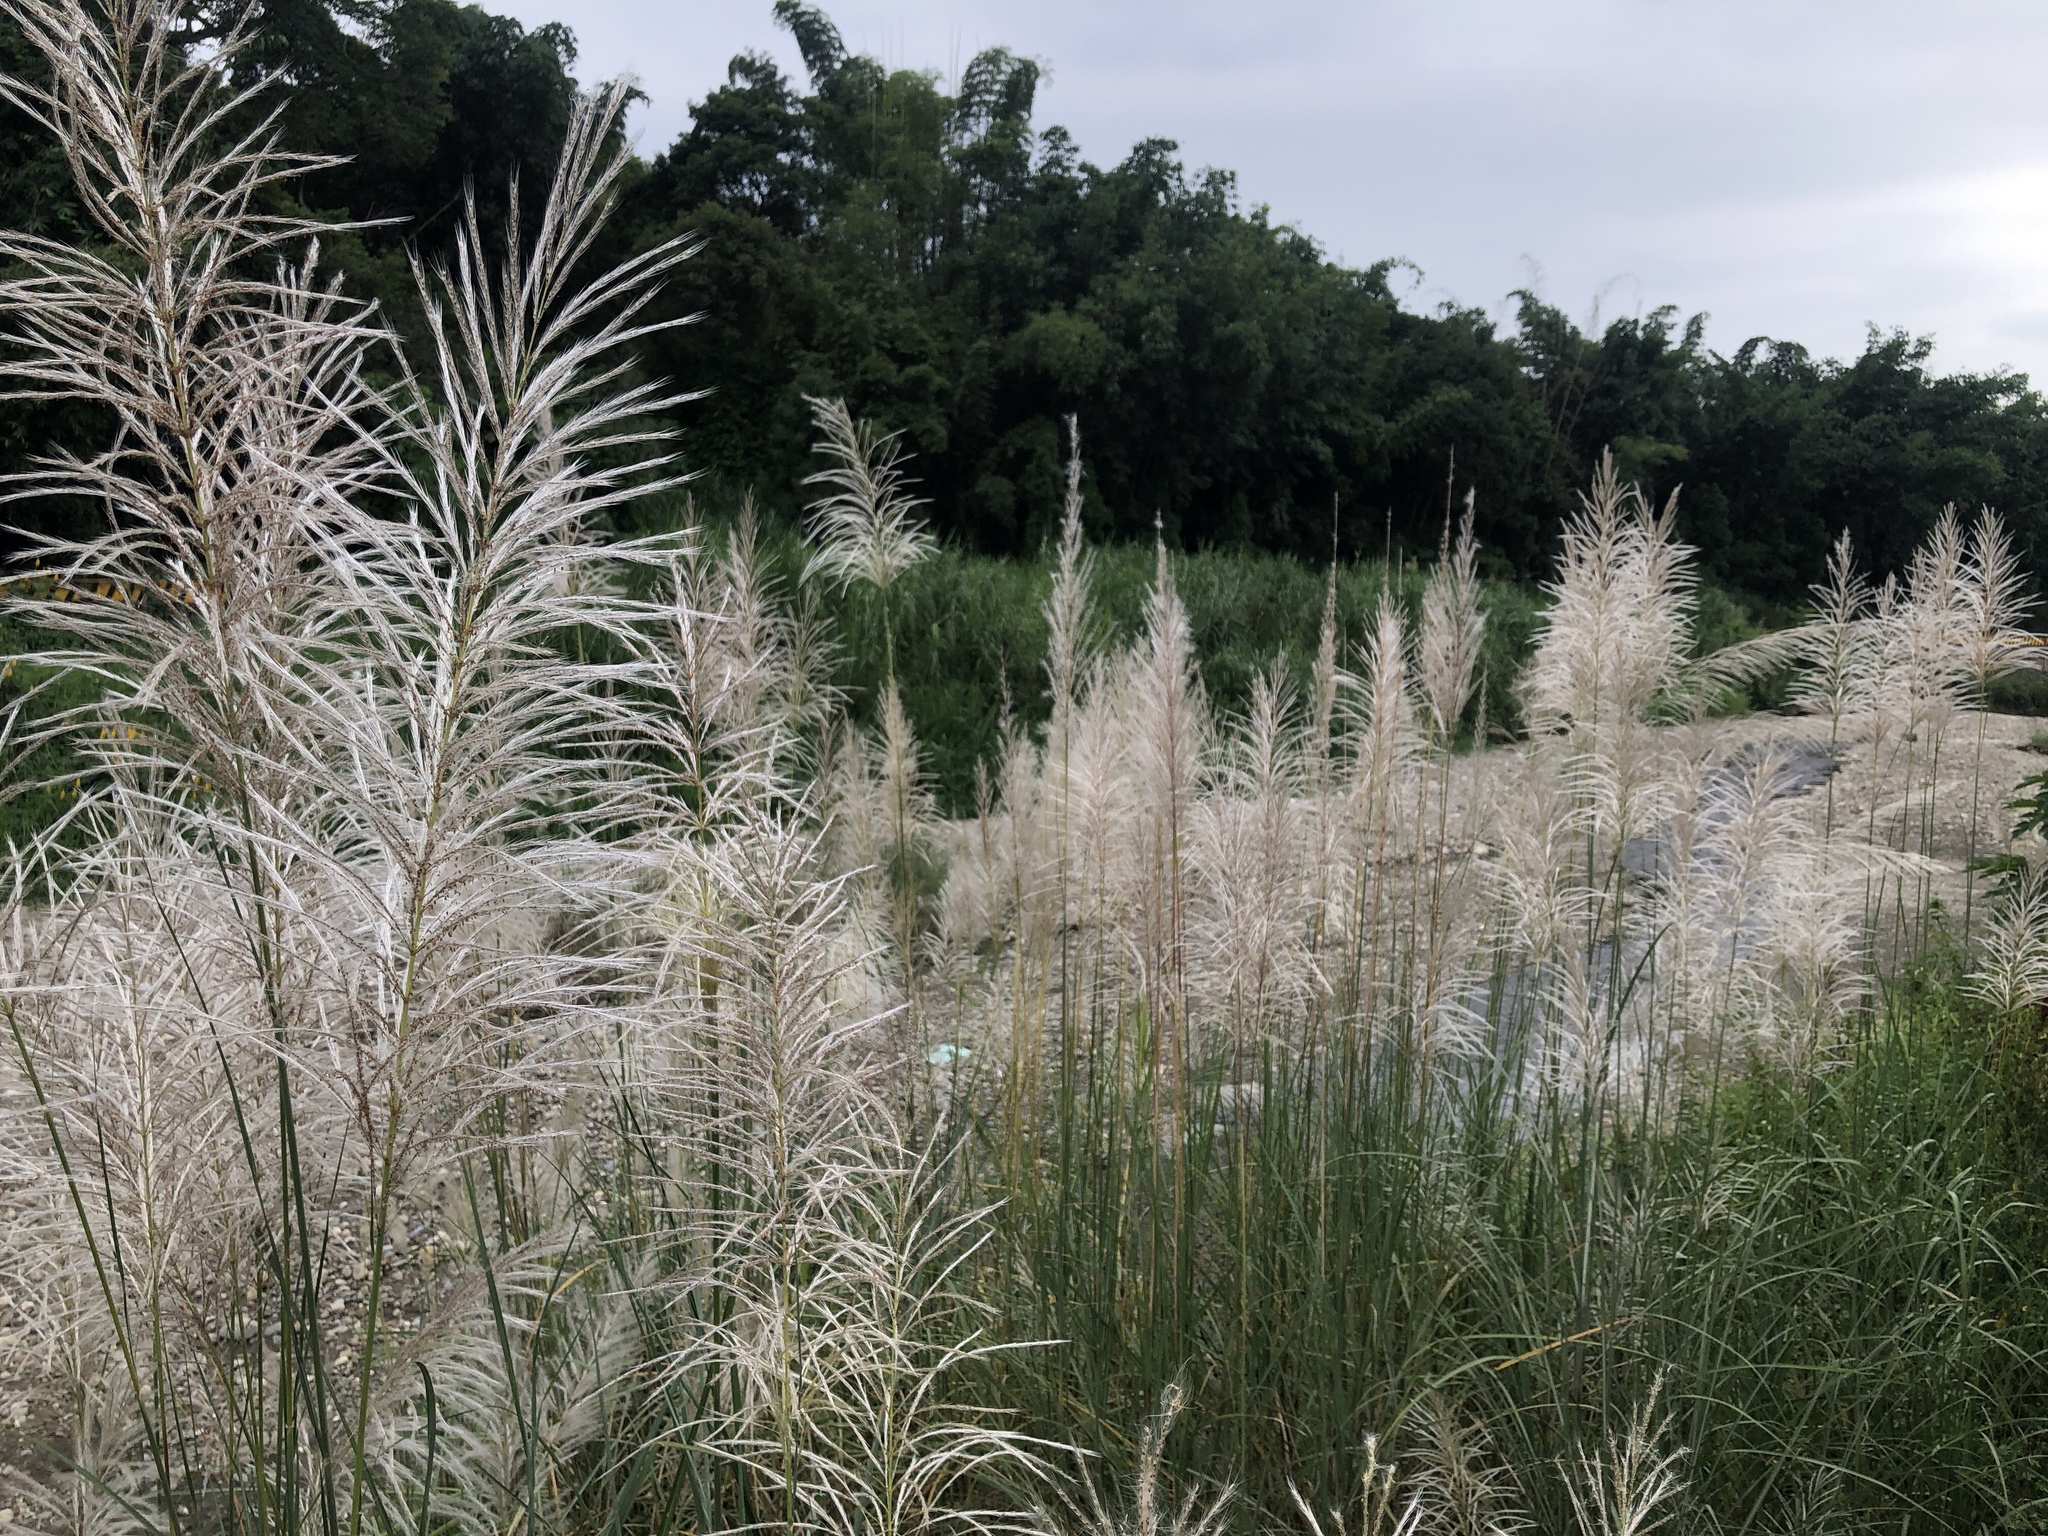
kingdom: Plantae
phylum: Tracheophyta
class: Liliopsida
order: Poales
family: Poaceae
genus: Saccharum
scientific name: Saccharum spontaneum
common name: Wild sugarcane
